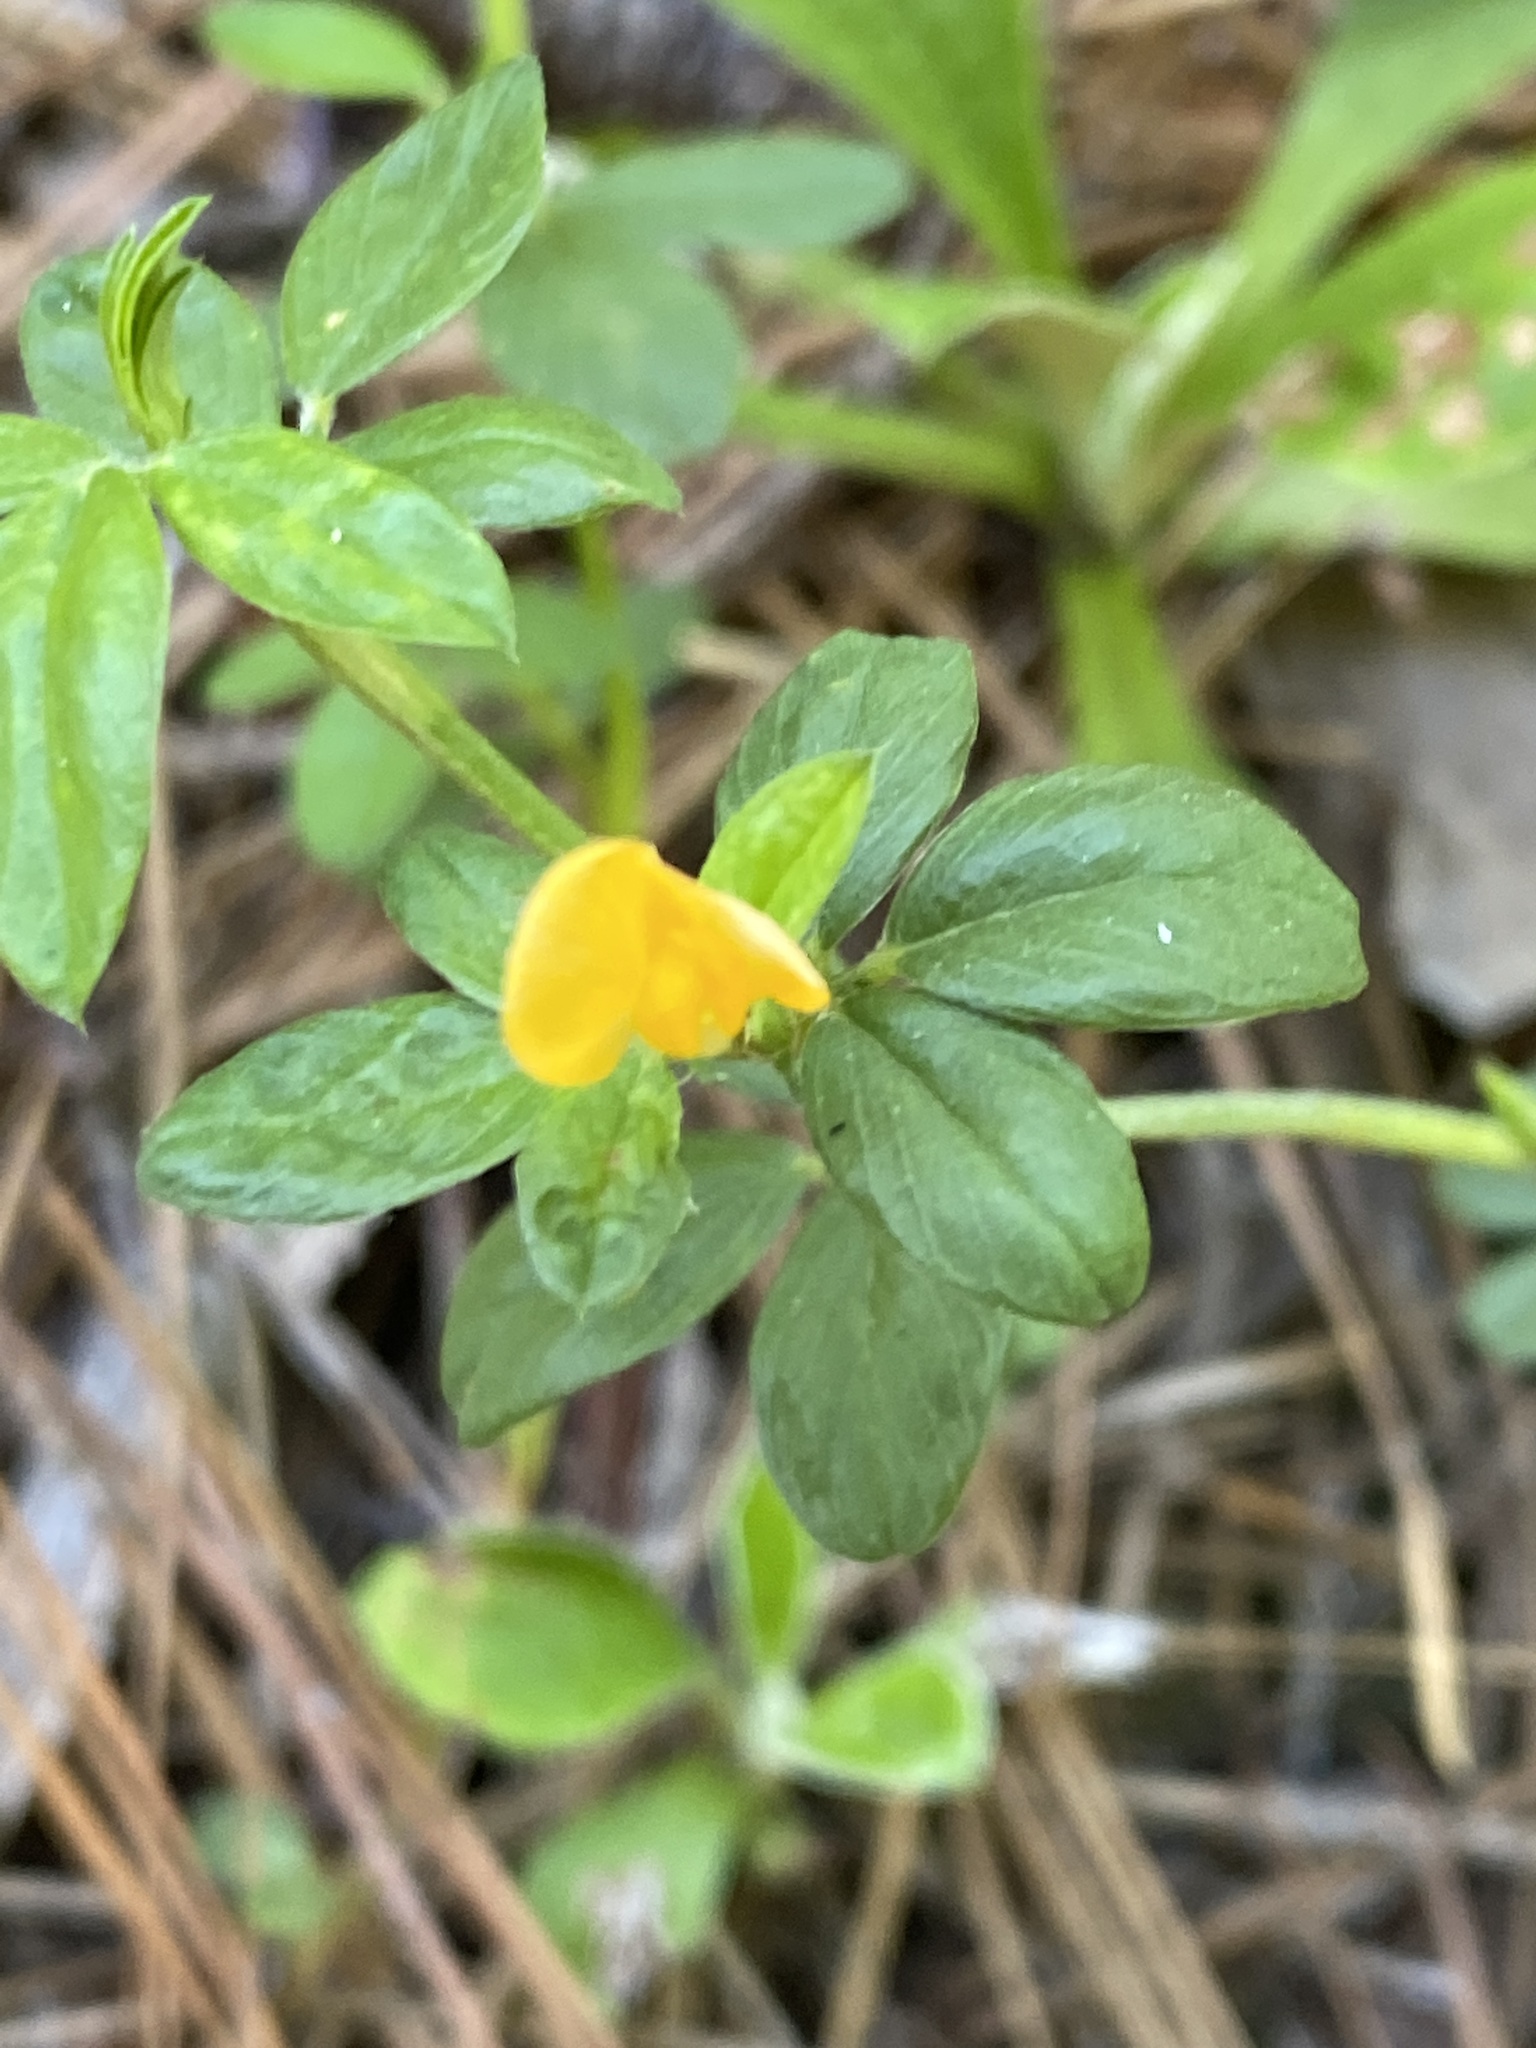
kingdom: Plantae
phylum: Tracheophyta
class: Magnoliopsida
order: Fabales
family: Fabaceae
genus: Stylosanthes
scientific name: Stylosanthes biflora
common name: Two-flower pencil-flower
